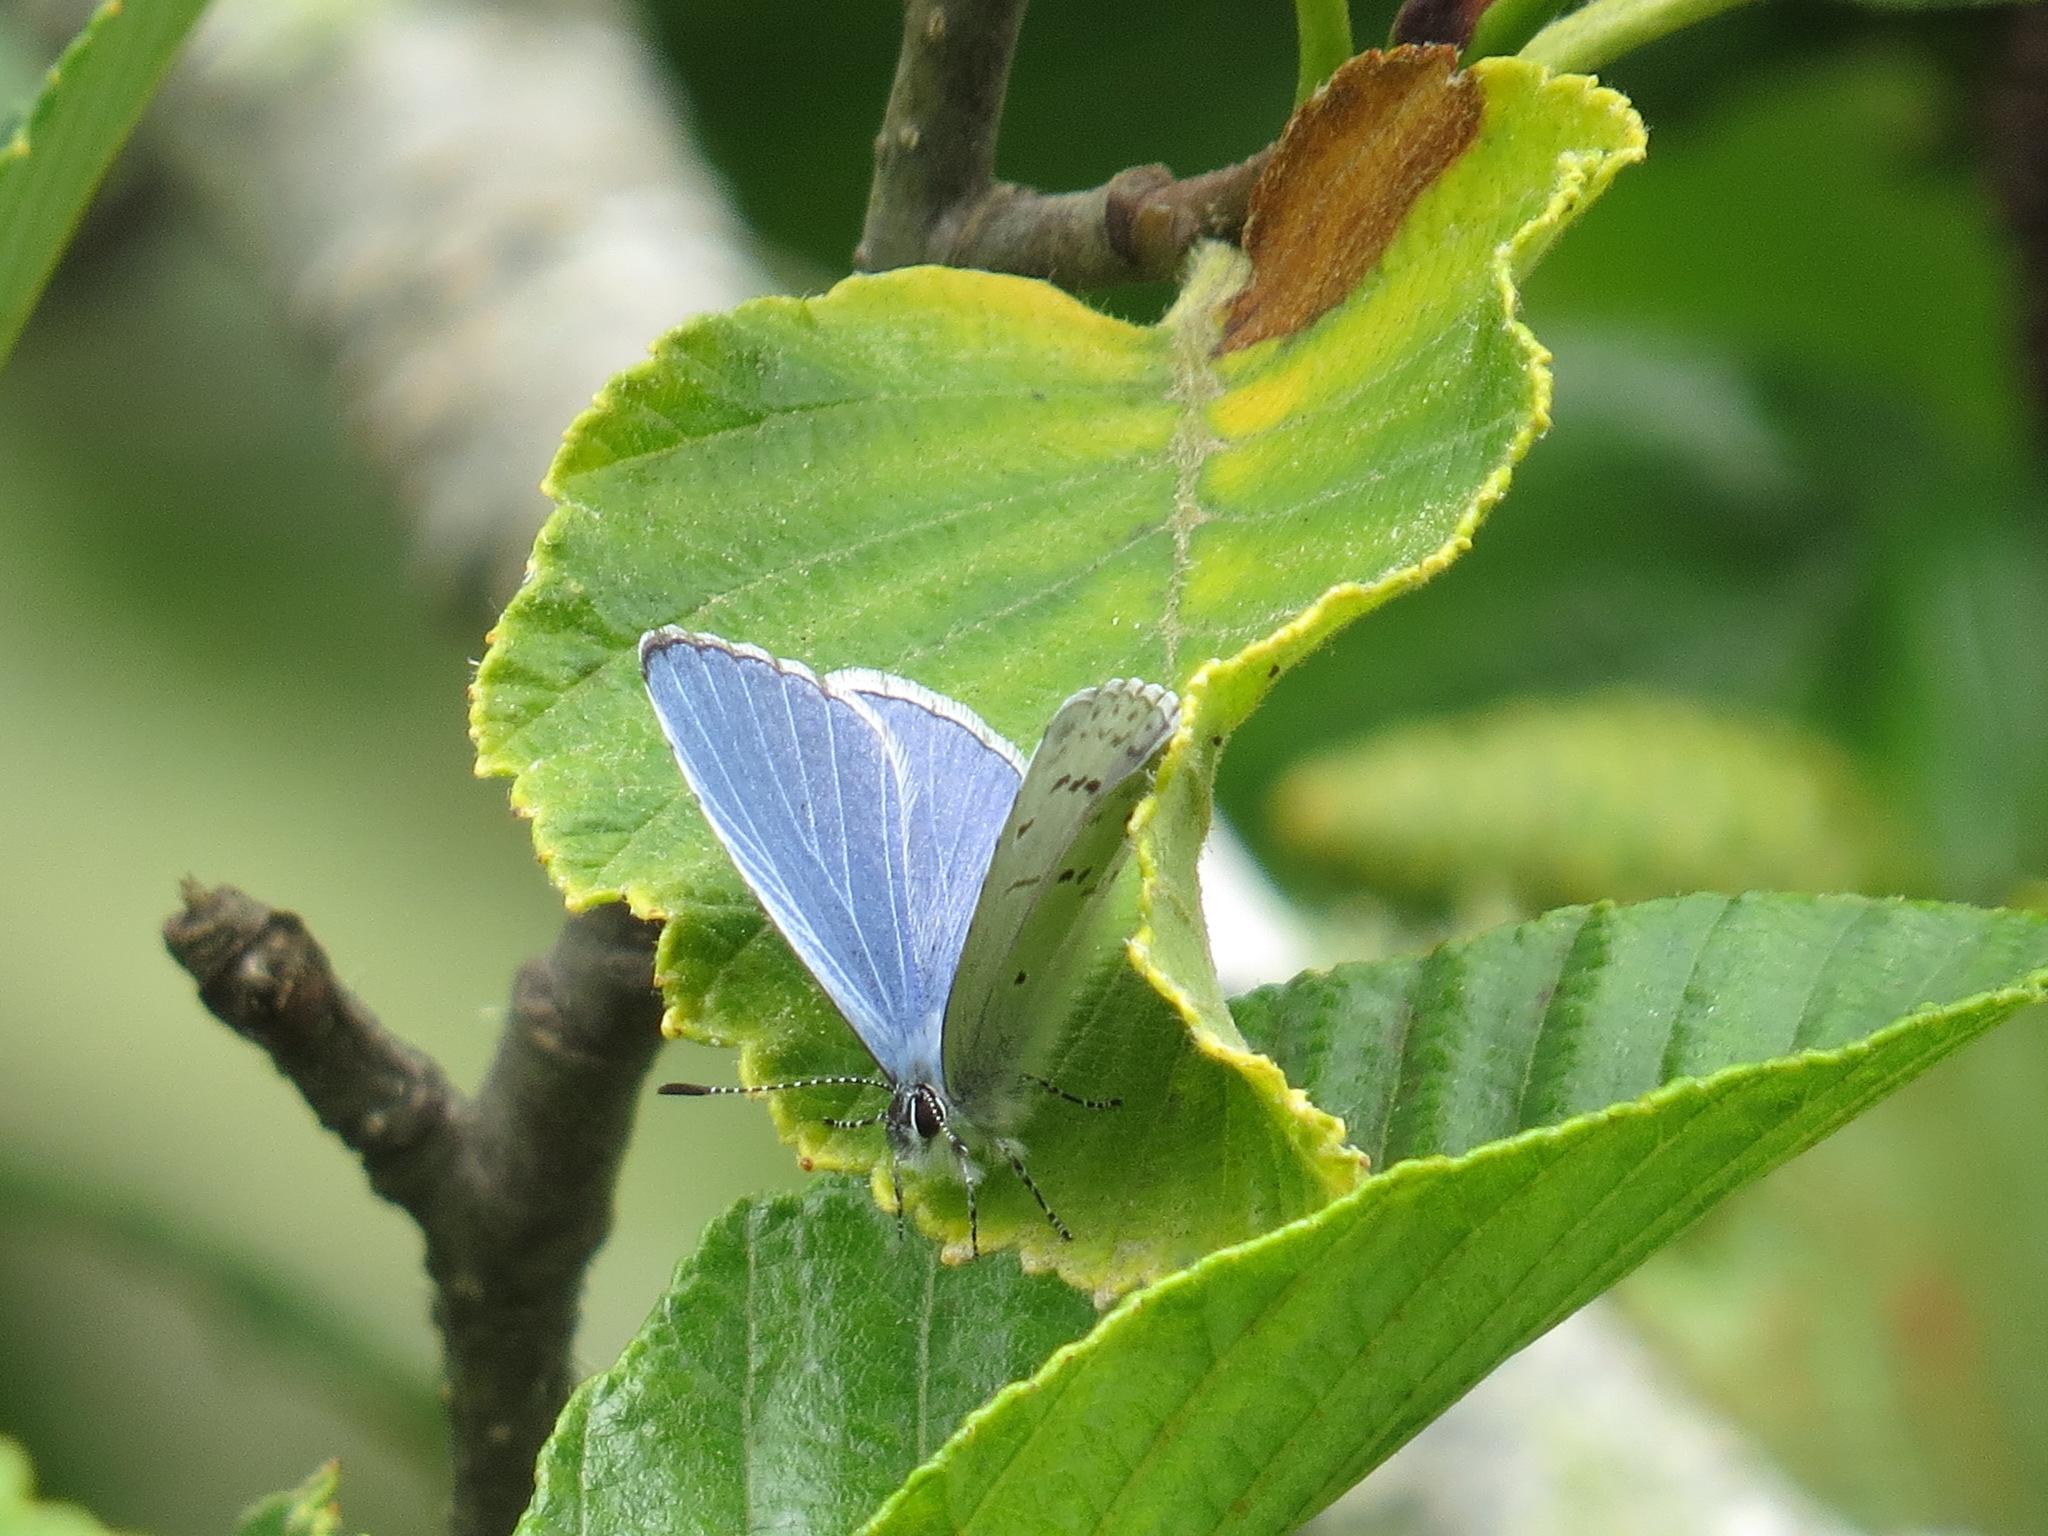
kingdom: Animalia
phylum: Arthropoda
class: Insecta
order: Lepidoptera
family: Lycaenidae
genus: Celastrina
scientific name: Celastrina ladon
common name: Spring azure
